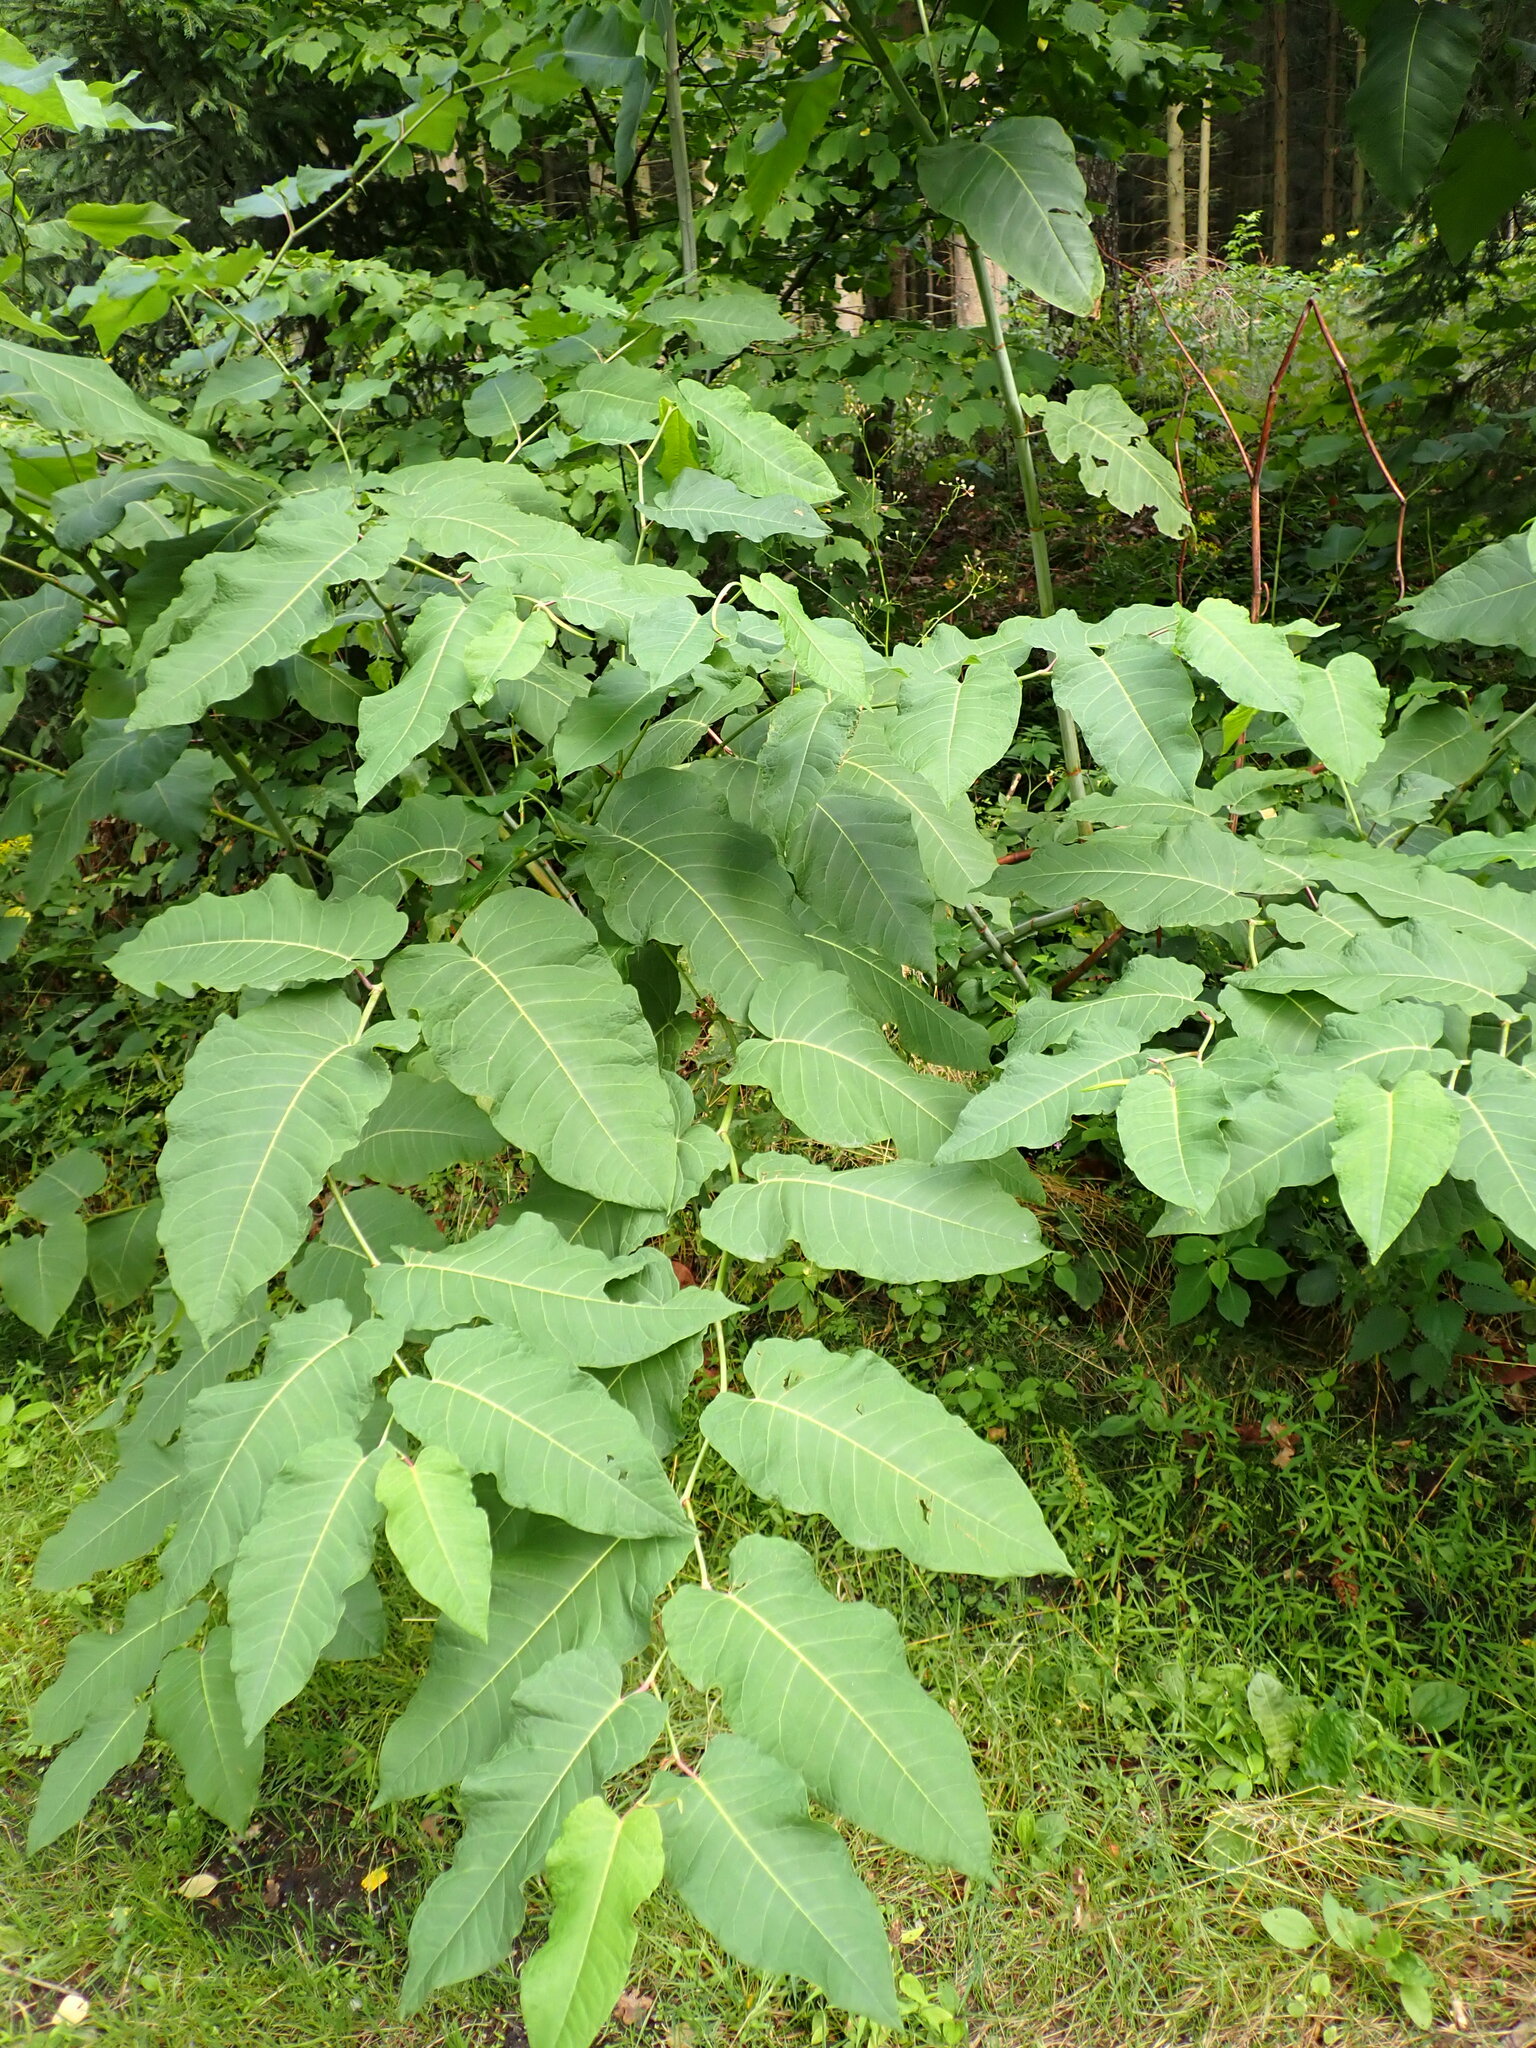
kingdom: Plantae
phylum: Tracheophyta
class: Magnoliopsida
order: Caryophyllales
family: Polygonaceae
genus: Reynoutria
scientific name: Reynoutria sachalinensis
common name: Giant knotweed
